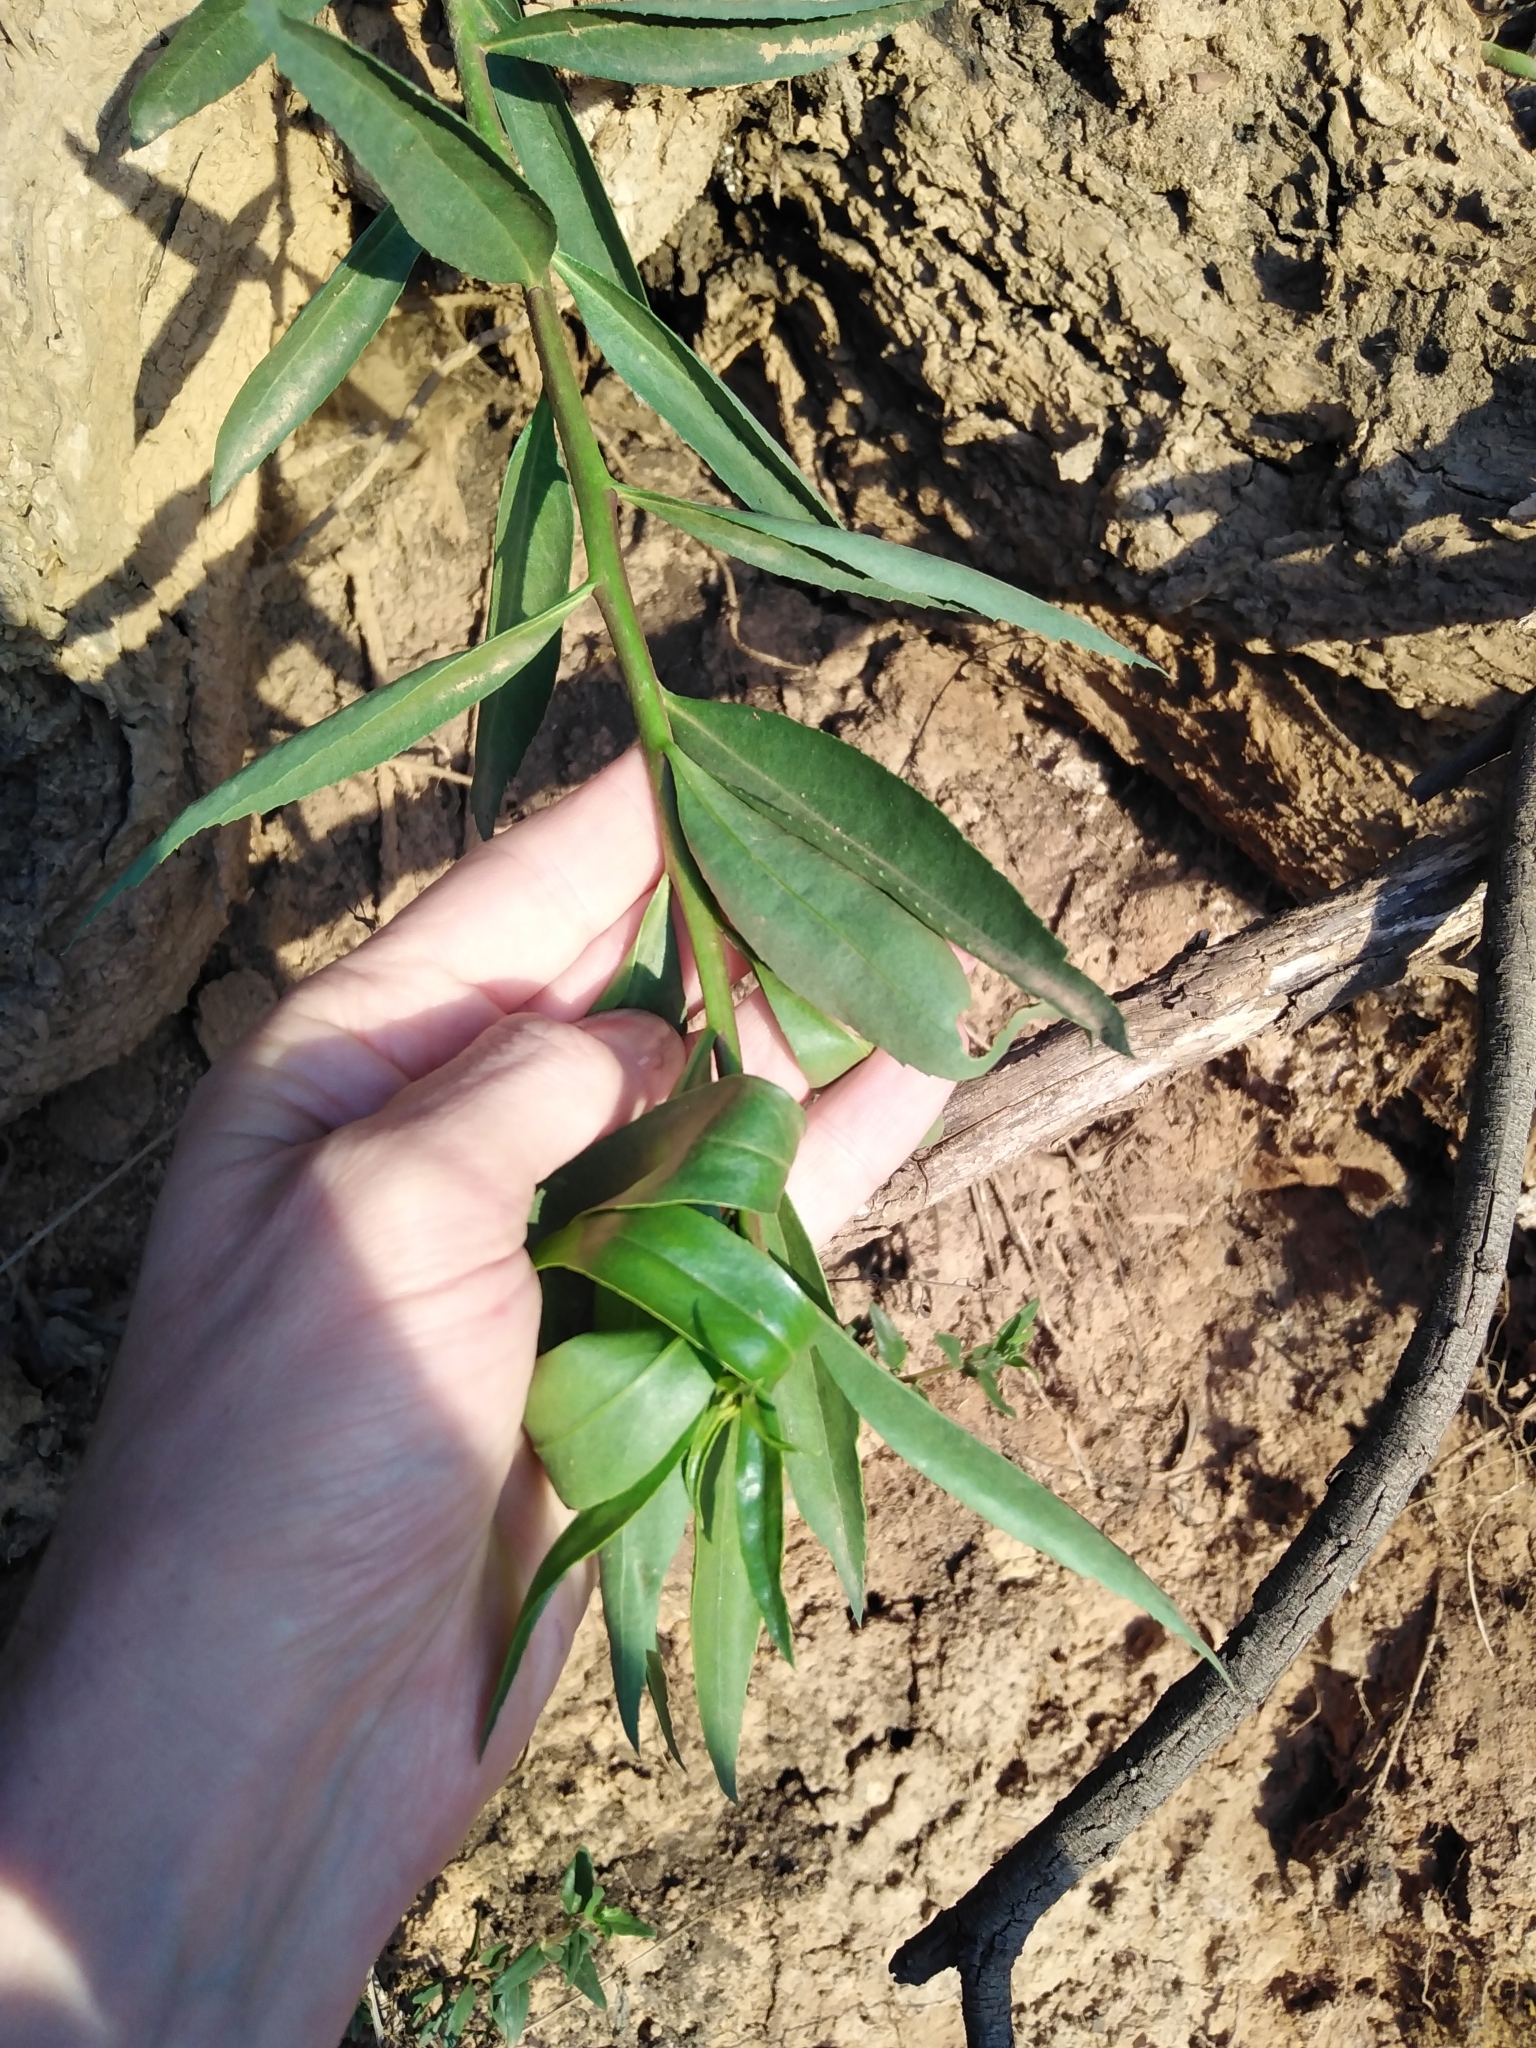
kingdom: Plantae
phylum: Tracheophyta
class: Magnoliopsida
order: Lamiales
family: Scrophulariaceae
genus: Myoporum
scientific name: Myoporum insulare
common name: Common boobialla
